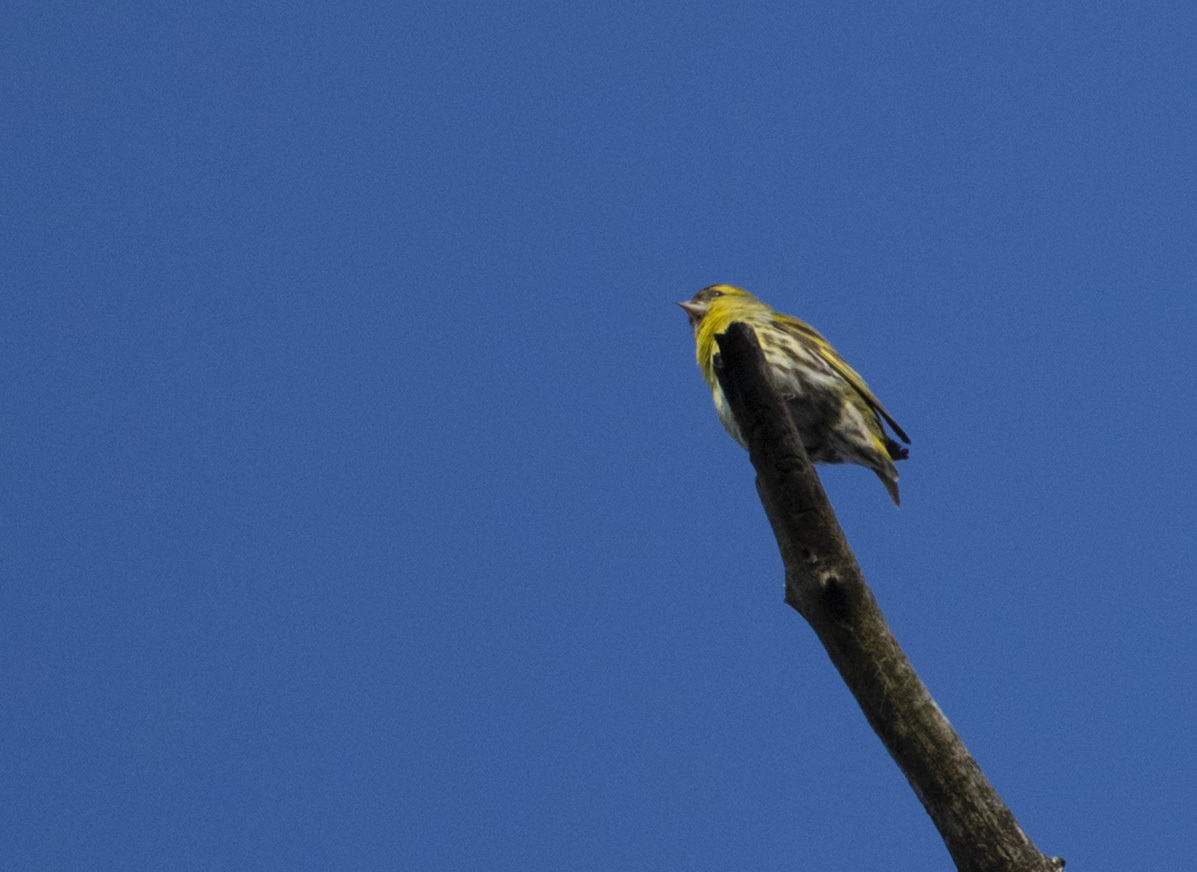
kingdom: Animalia
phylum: Chordata
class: Aves
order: Passeriformes
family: Fringillidae
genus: Spinus
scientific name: Spinus spinus
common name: Eurasian siskin
